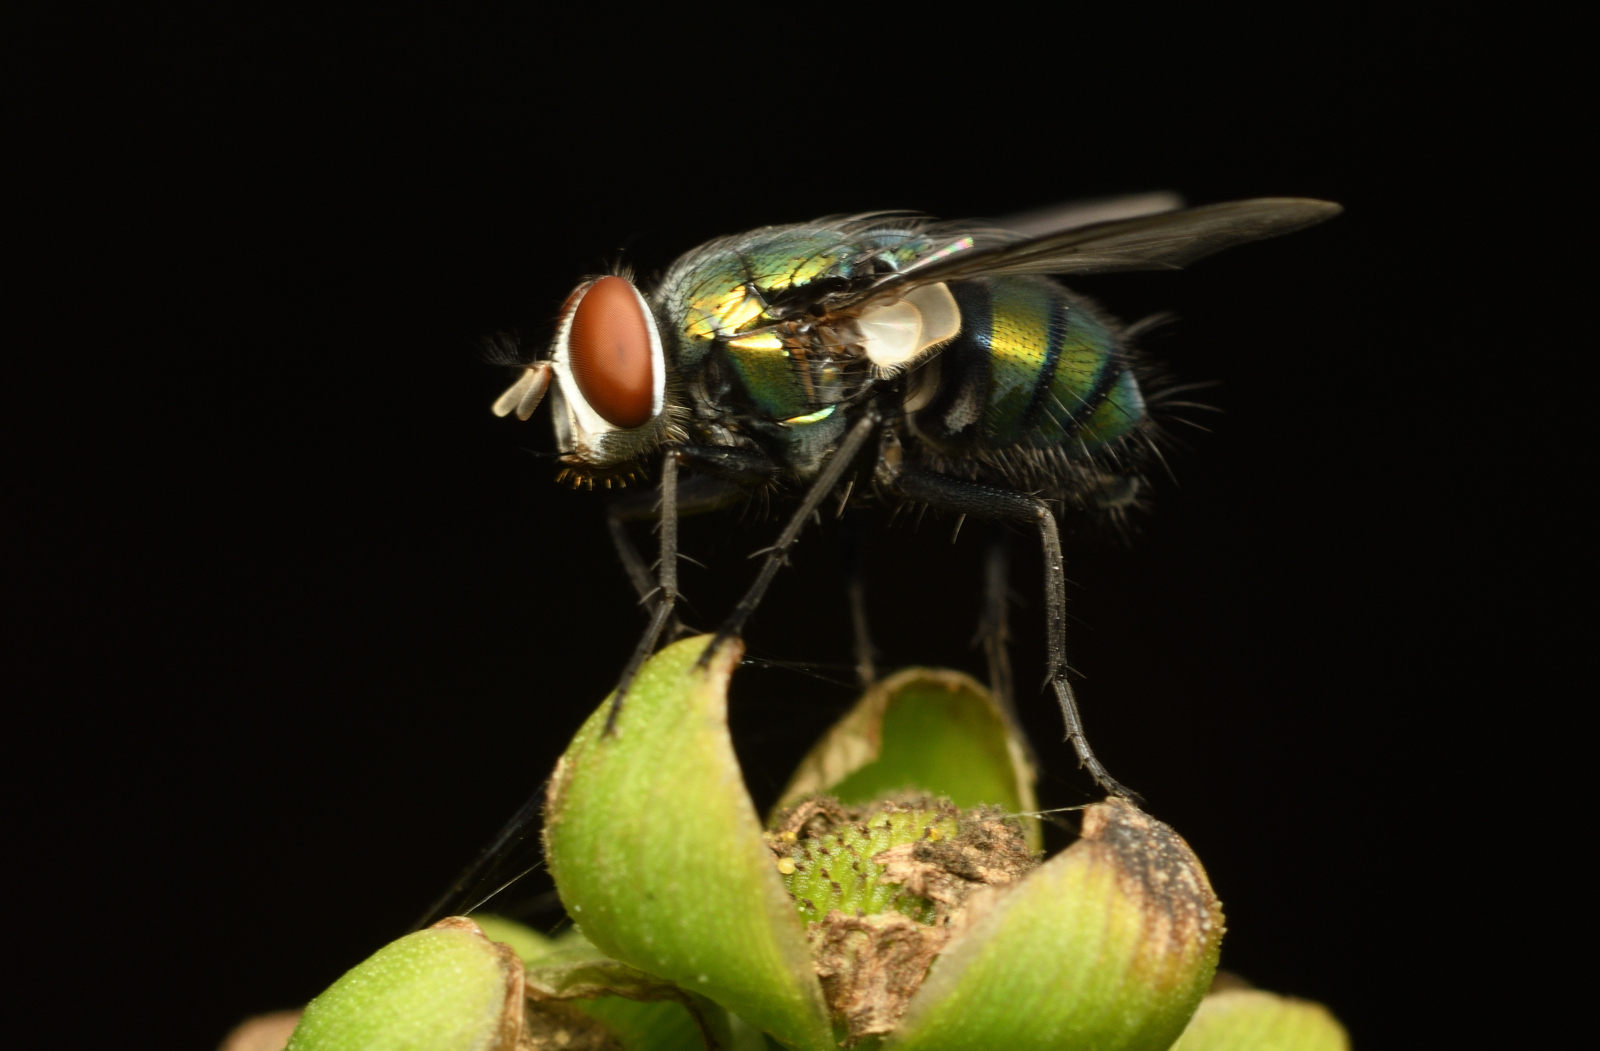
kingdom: Animalia
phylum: Arthropoda
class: Insecta
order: Diptera
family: Calliphoridae
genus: Hemipyrellia
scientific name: Hemipyrellia ligurriens
